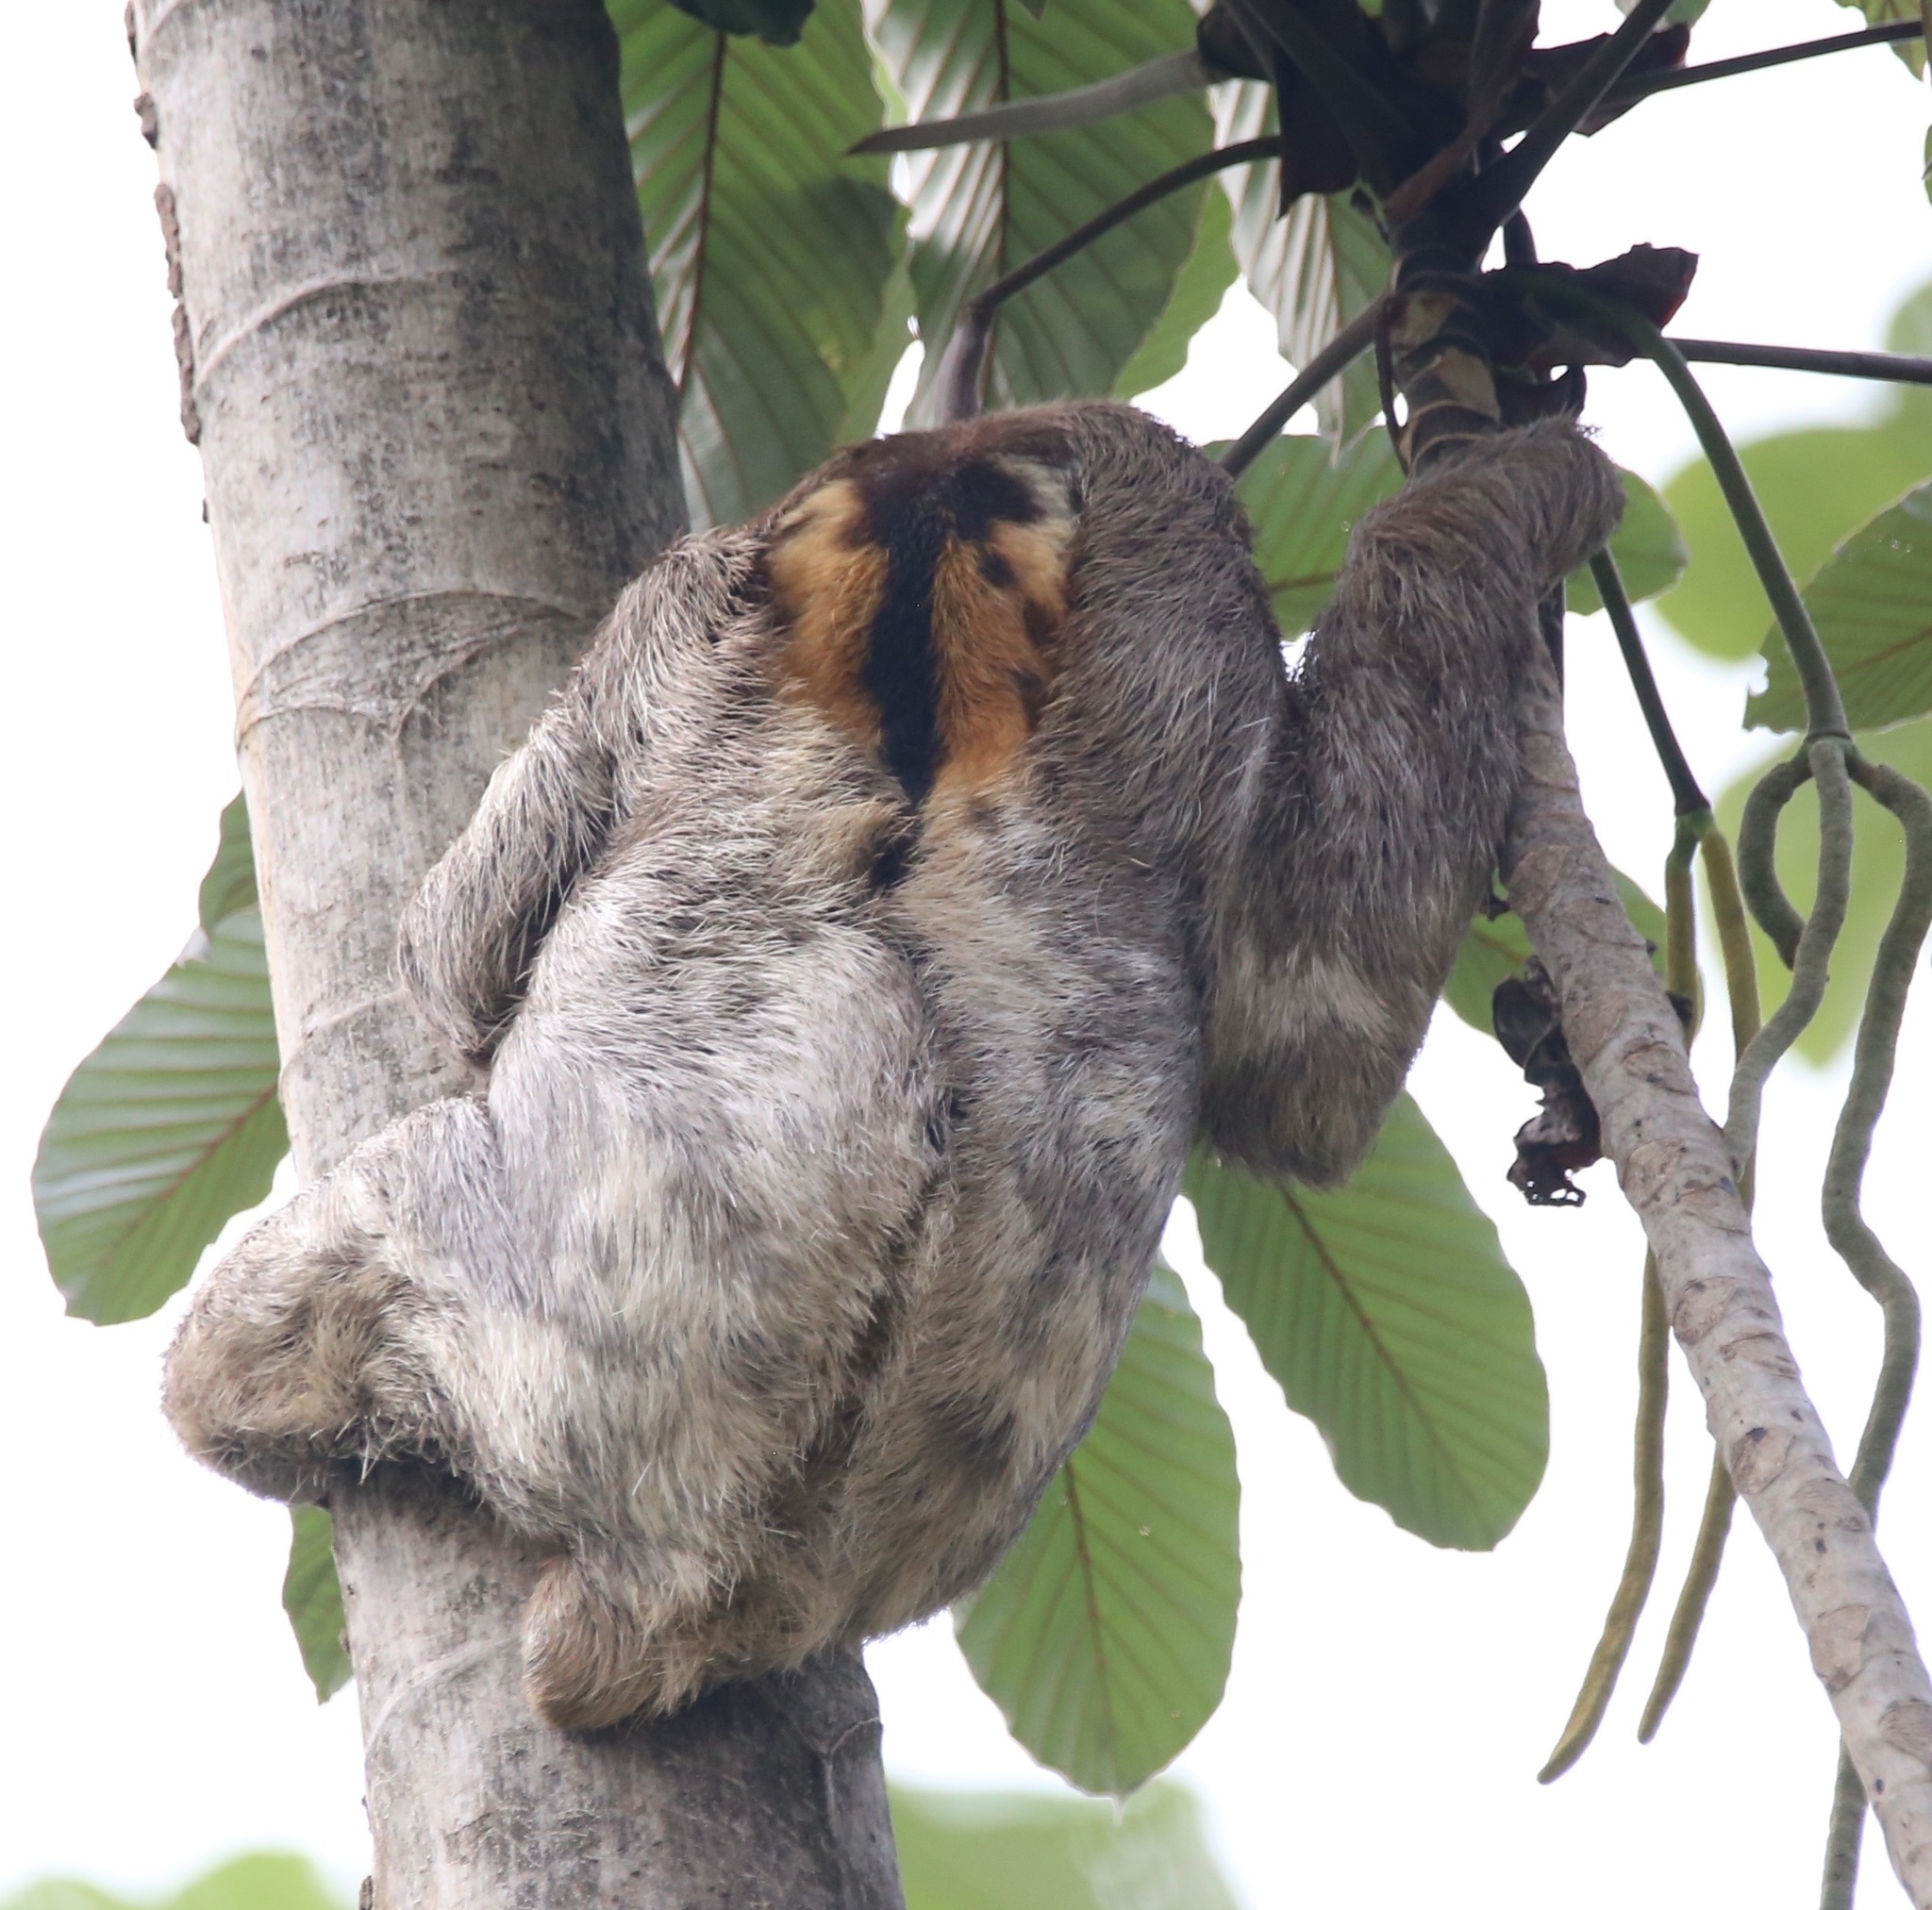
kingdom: Animalia
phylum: Chordata
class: Mammalia
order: Pilosa
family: Bradypodidae
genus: Bradypus
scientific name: Bradypus variegatus
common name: Brown-throated three-toed sloth
